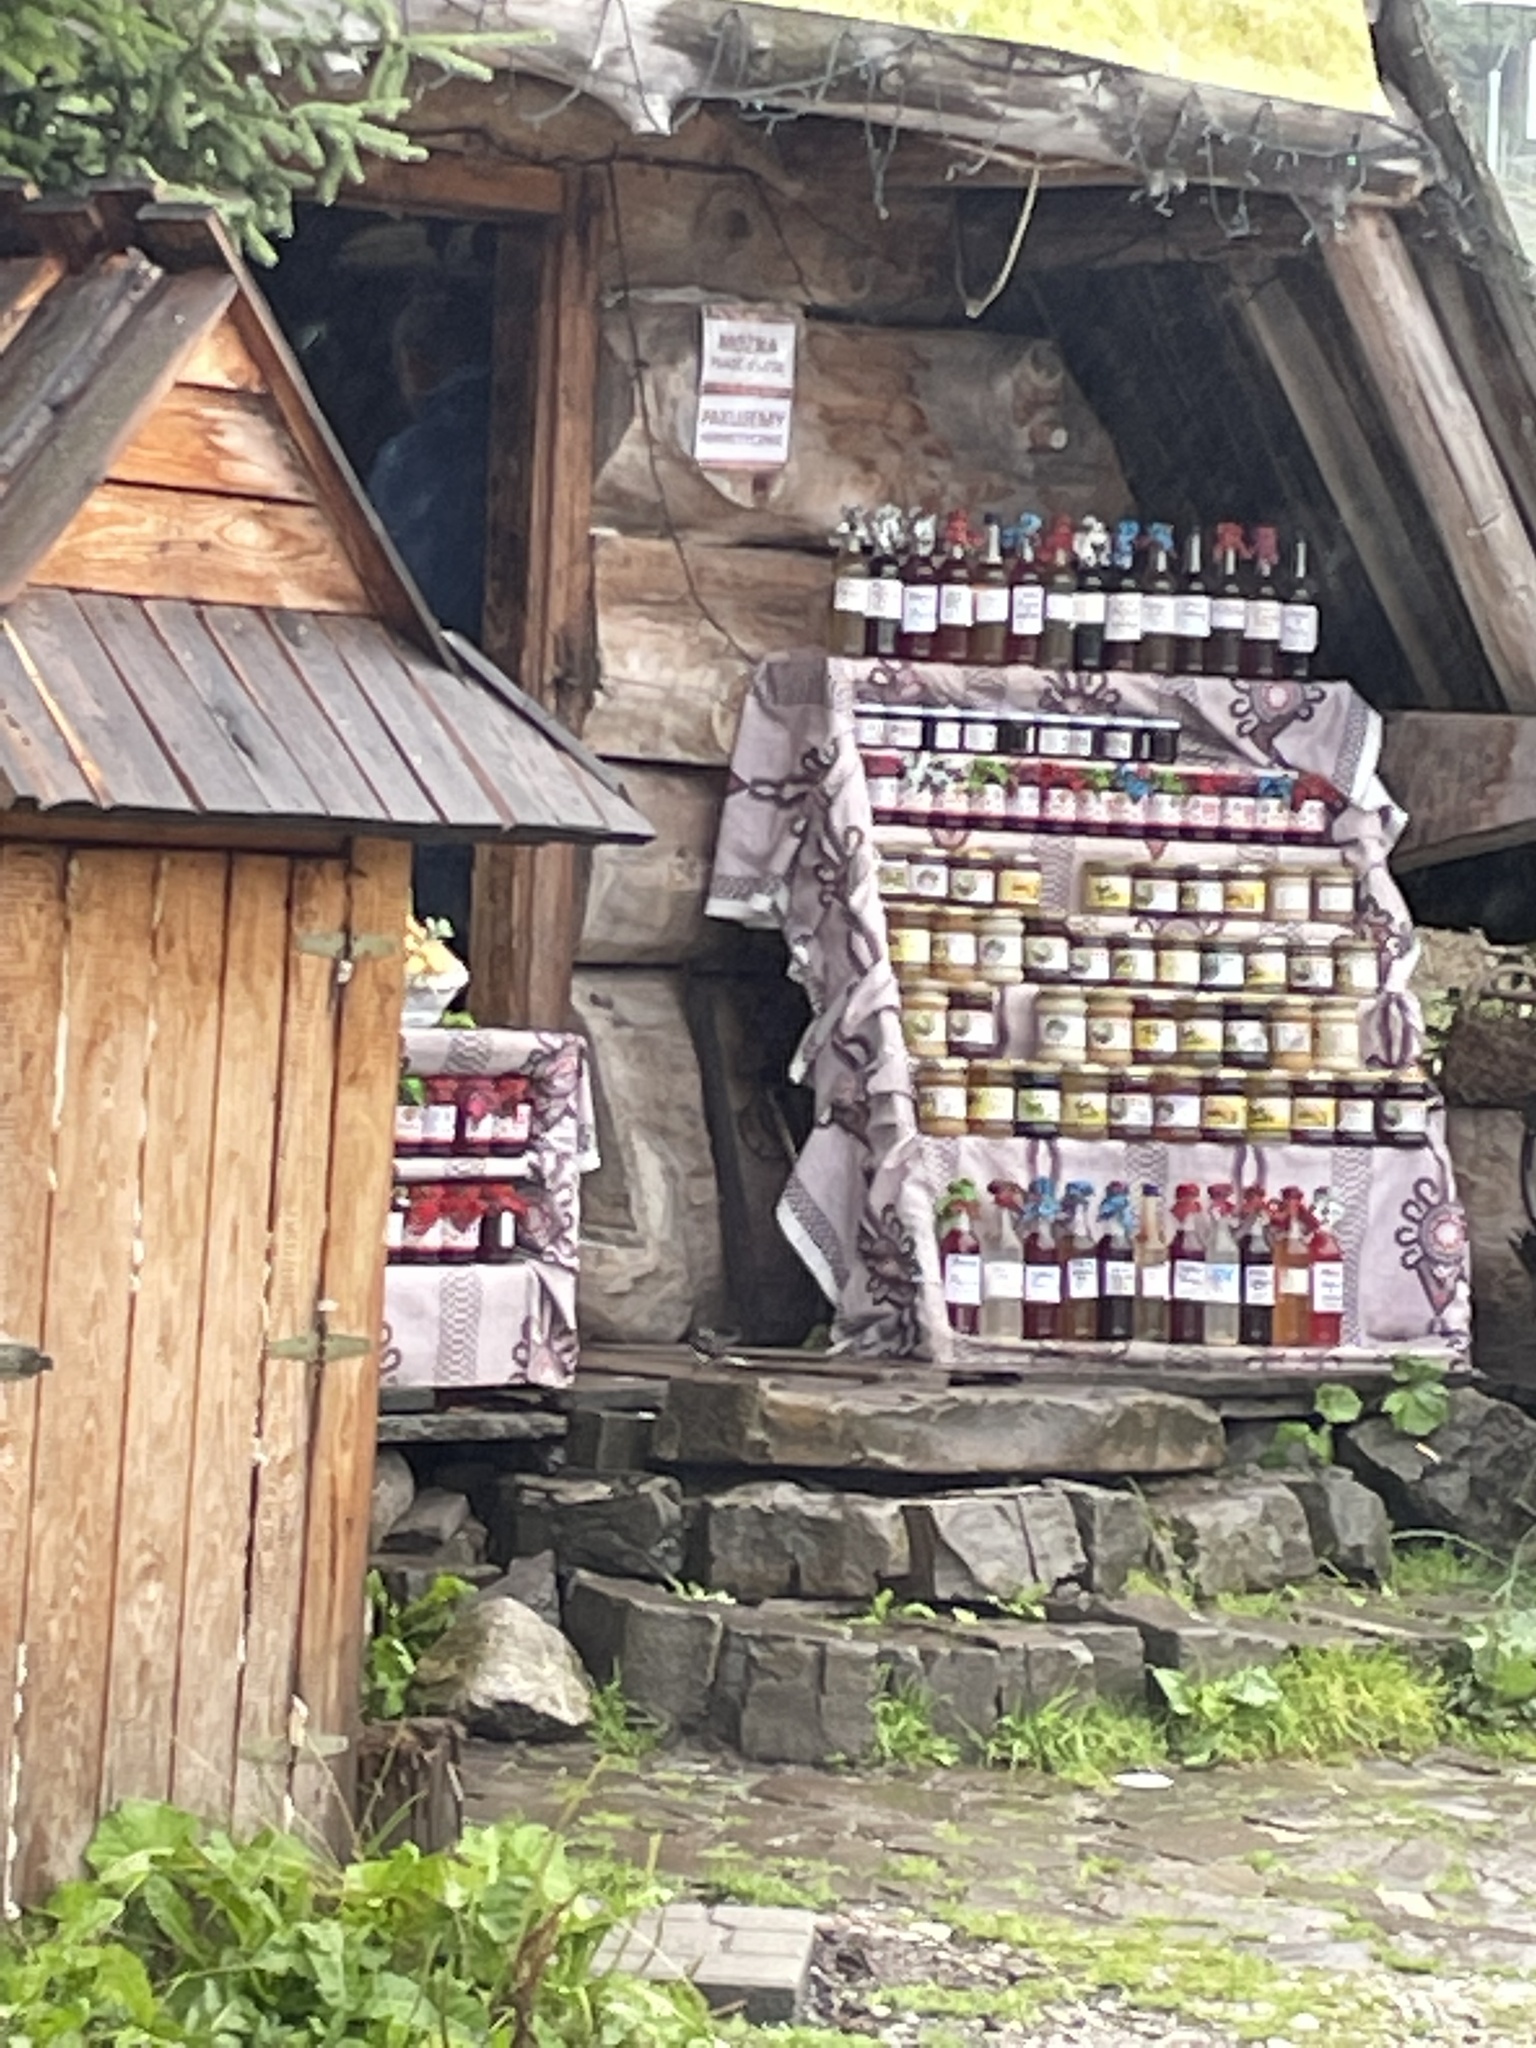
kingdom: Animalia
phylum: Chordata
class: Aves
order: Passeriformes
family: Motacillidae
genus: Motacilla
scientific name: Motacilla alba
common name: White wagtail
